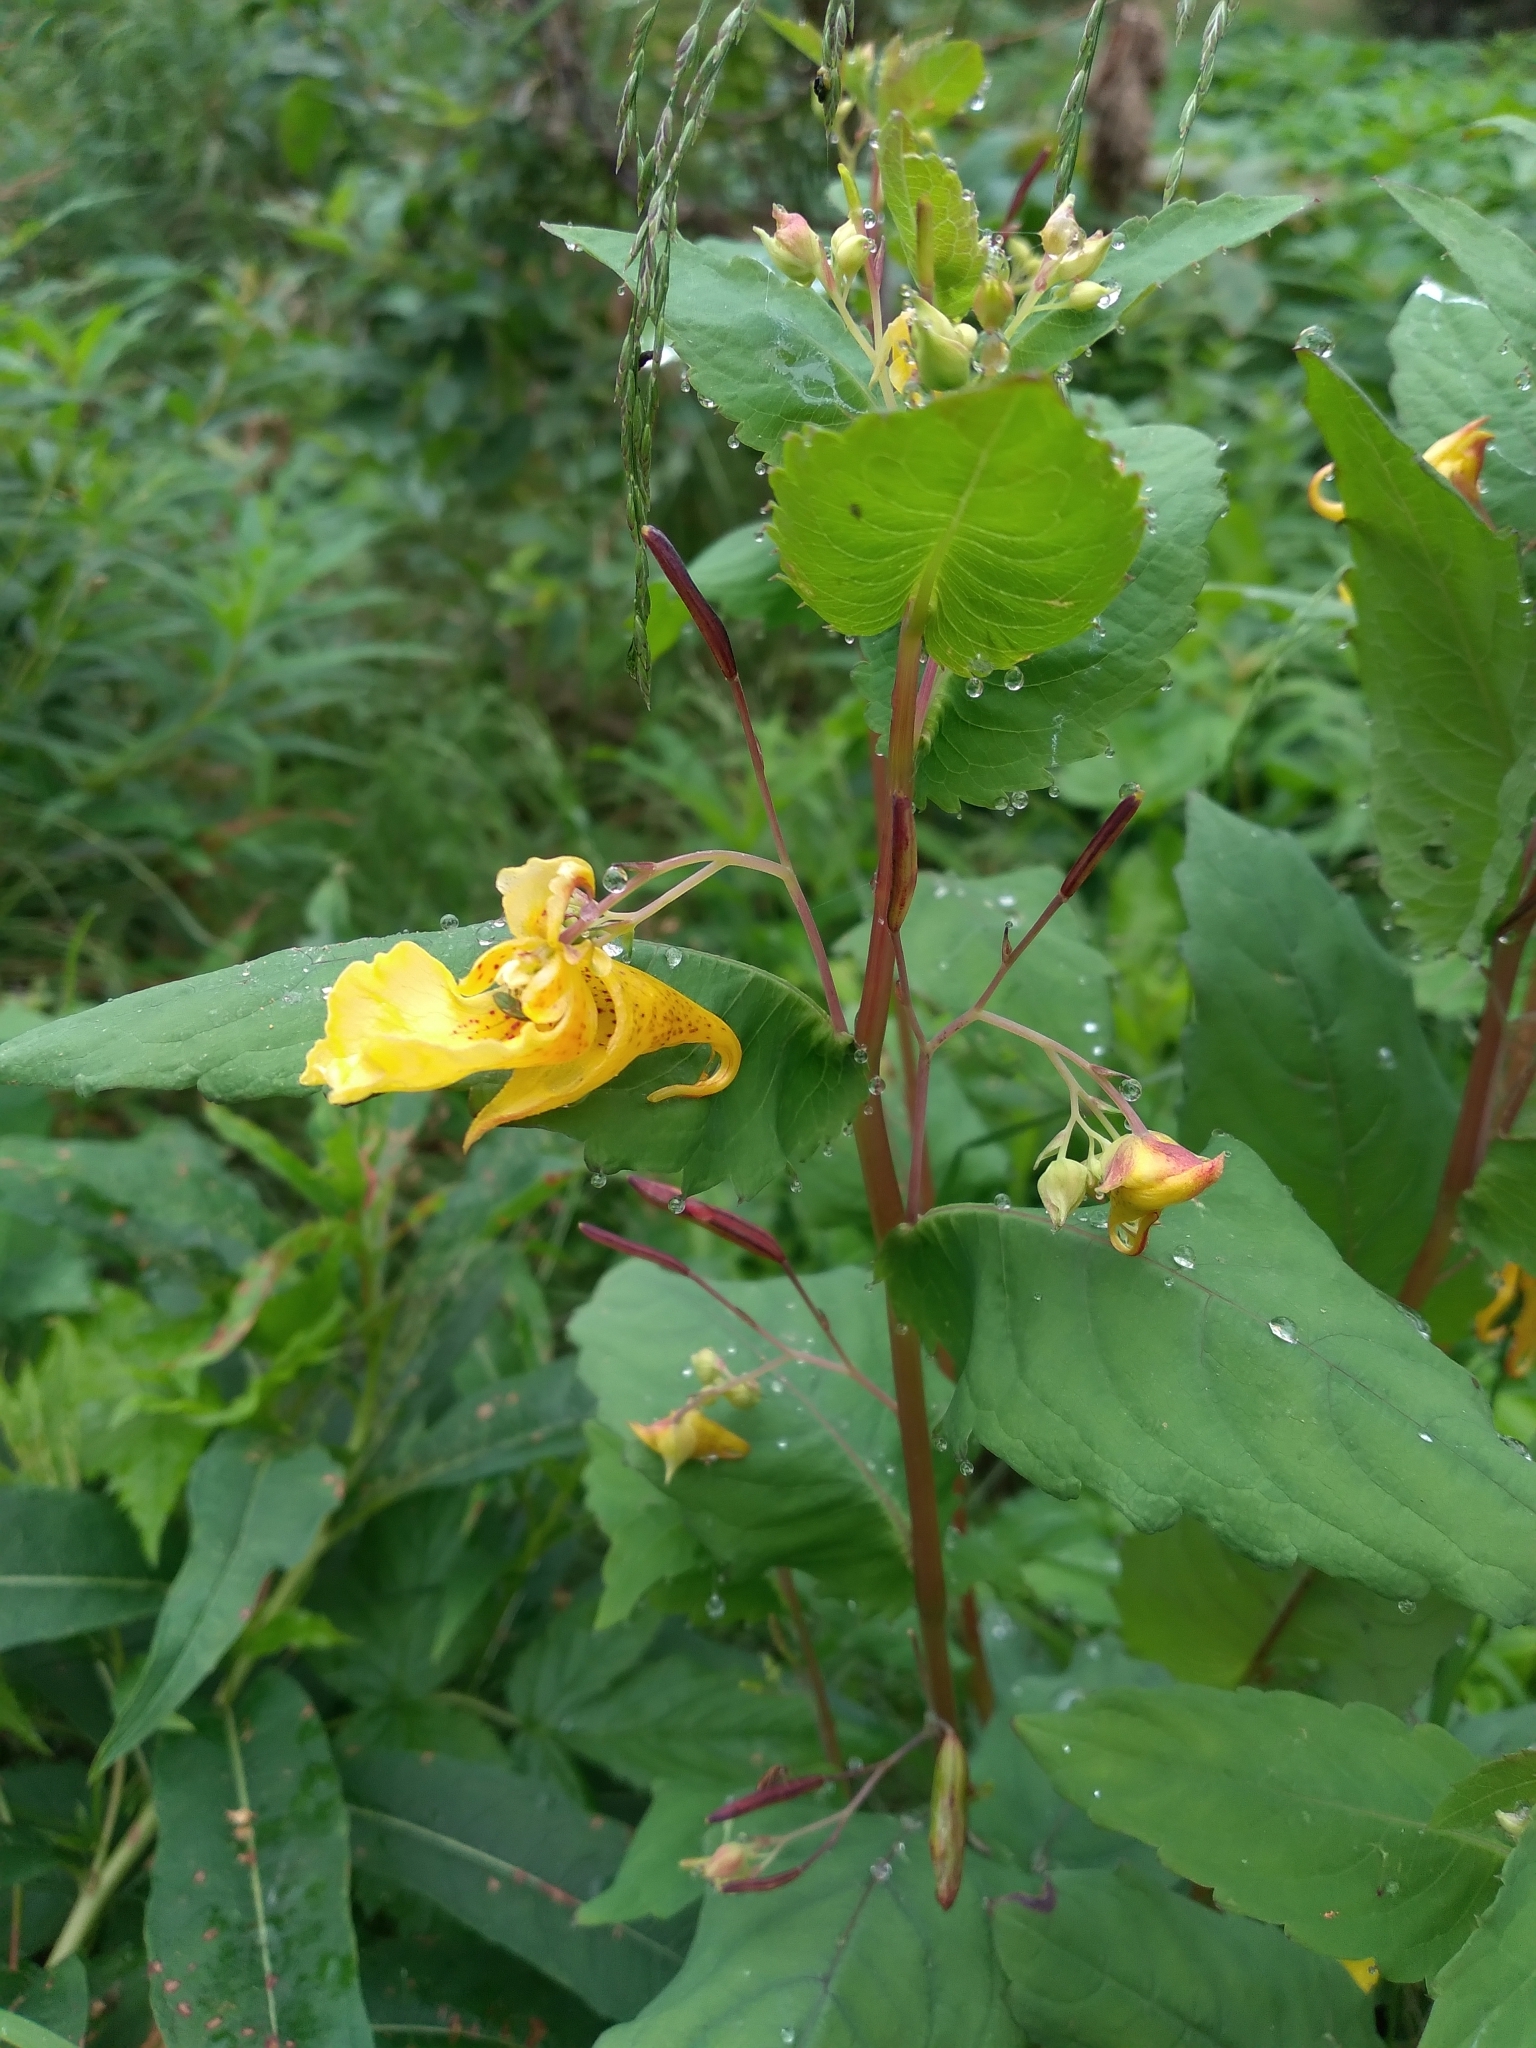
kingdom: Plantae
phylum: Tracheophyta
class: Magnoliopsida
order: Ericales
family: Balsaminaceae
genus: Impatiens
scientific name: Impatiens noli-tangere
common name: Touch-me-not balsam
